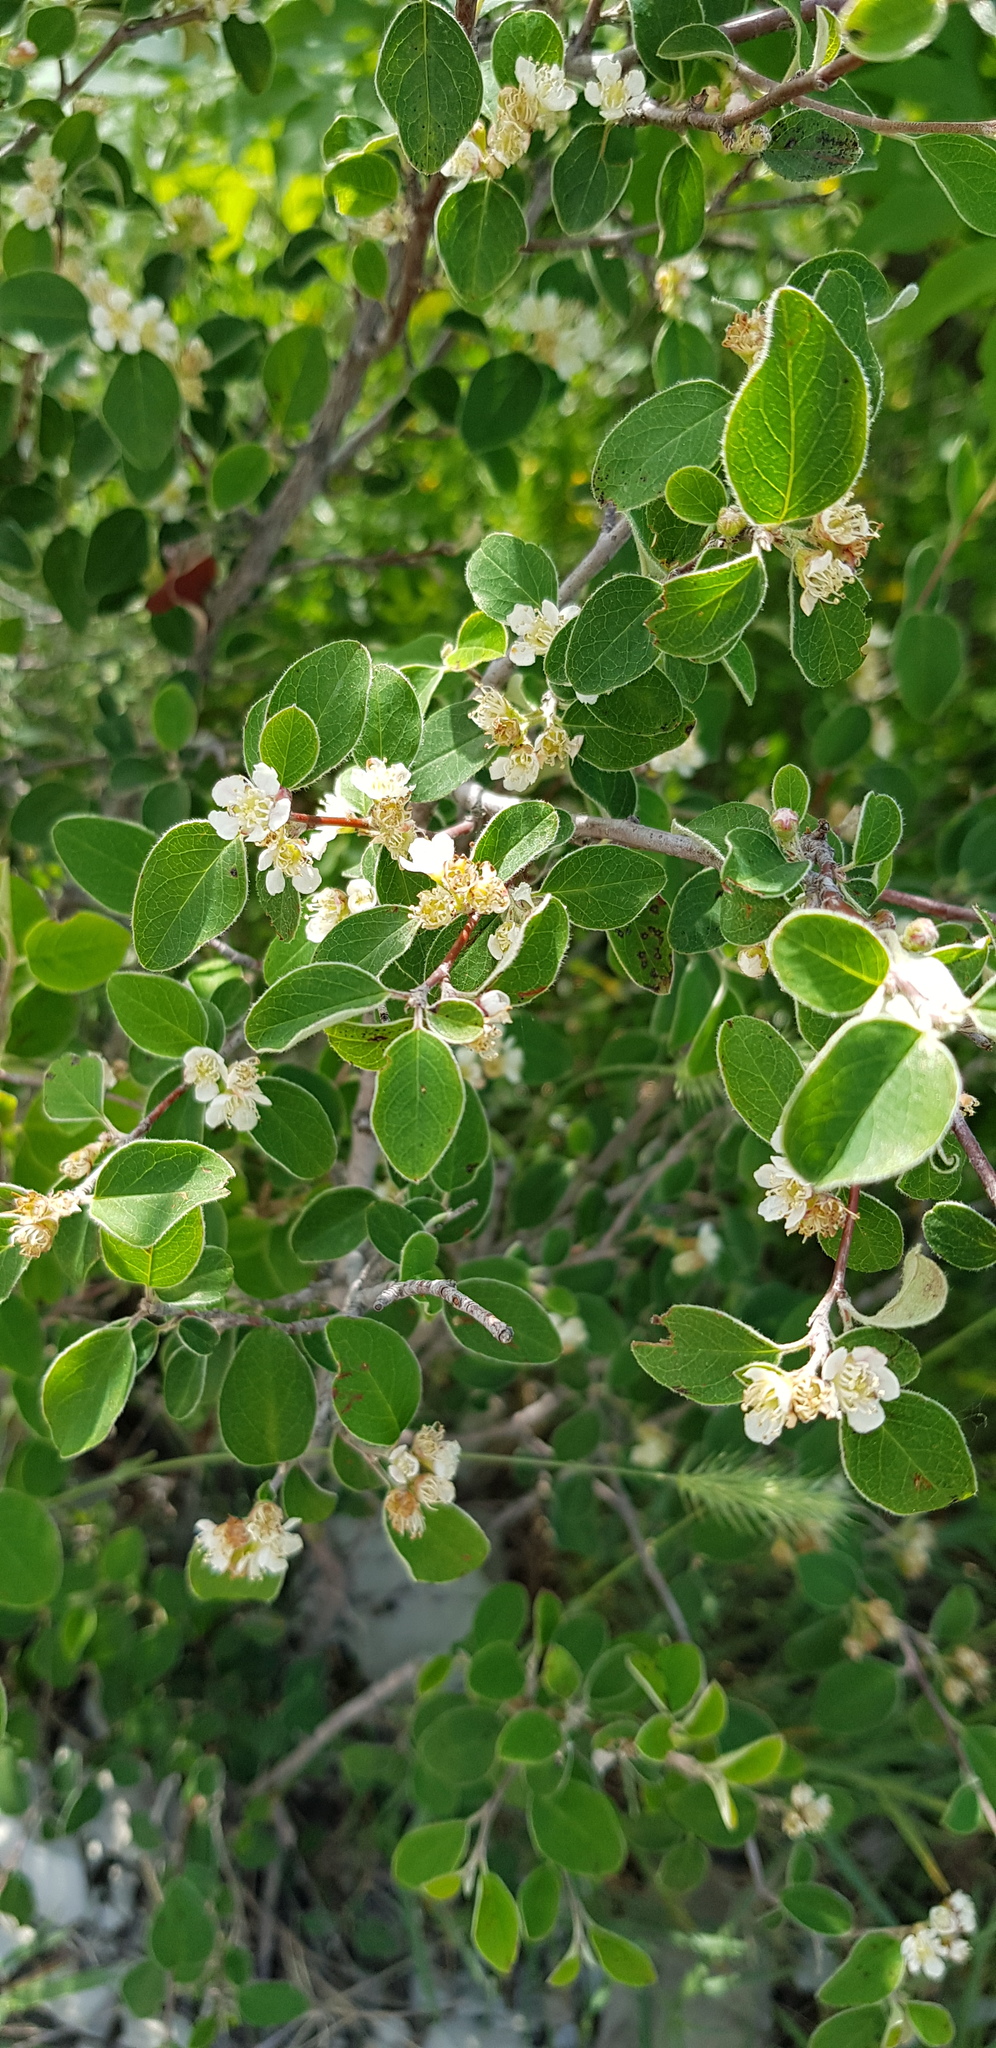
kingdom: Plantae
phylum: Tracheophyta
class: Magnoliopsida
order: Rosales
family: Rosaceae
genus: Cotoneaster
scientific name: Cotoneaster suavis
